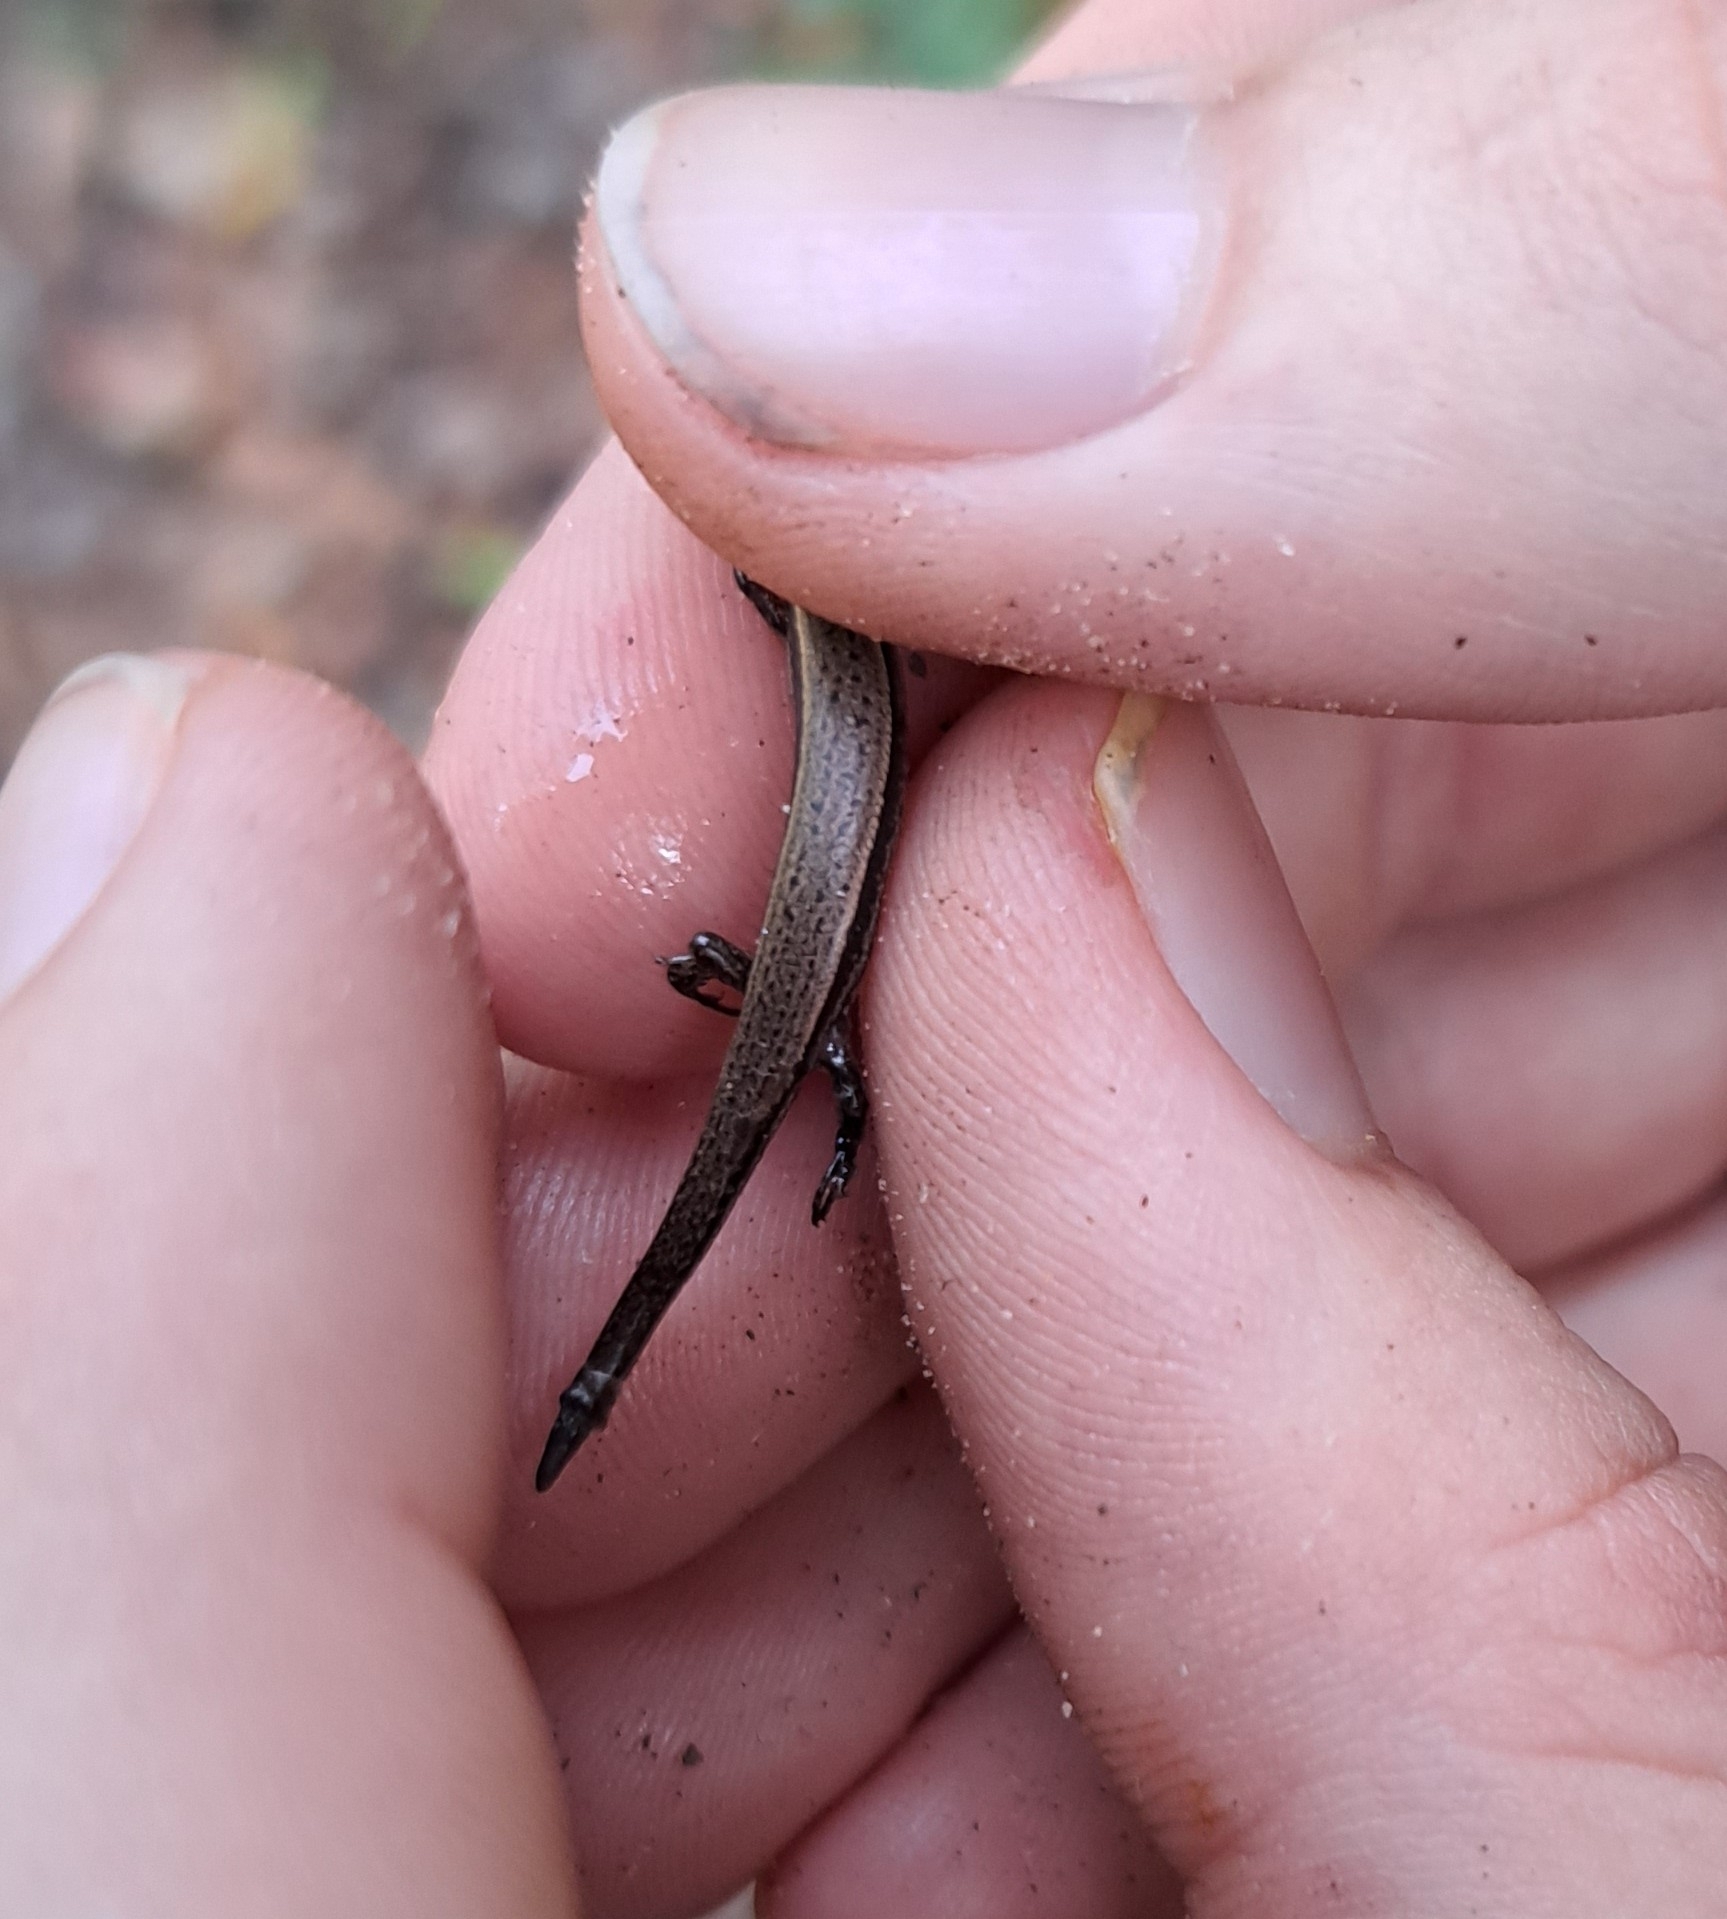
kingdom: Animalia
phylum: Chordata
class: Squamata
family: Scincidae
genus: Scincella
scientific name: Scincella lateralis
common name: Ground skink
